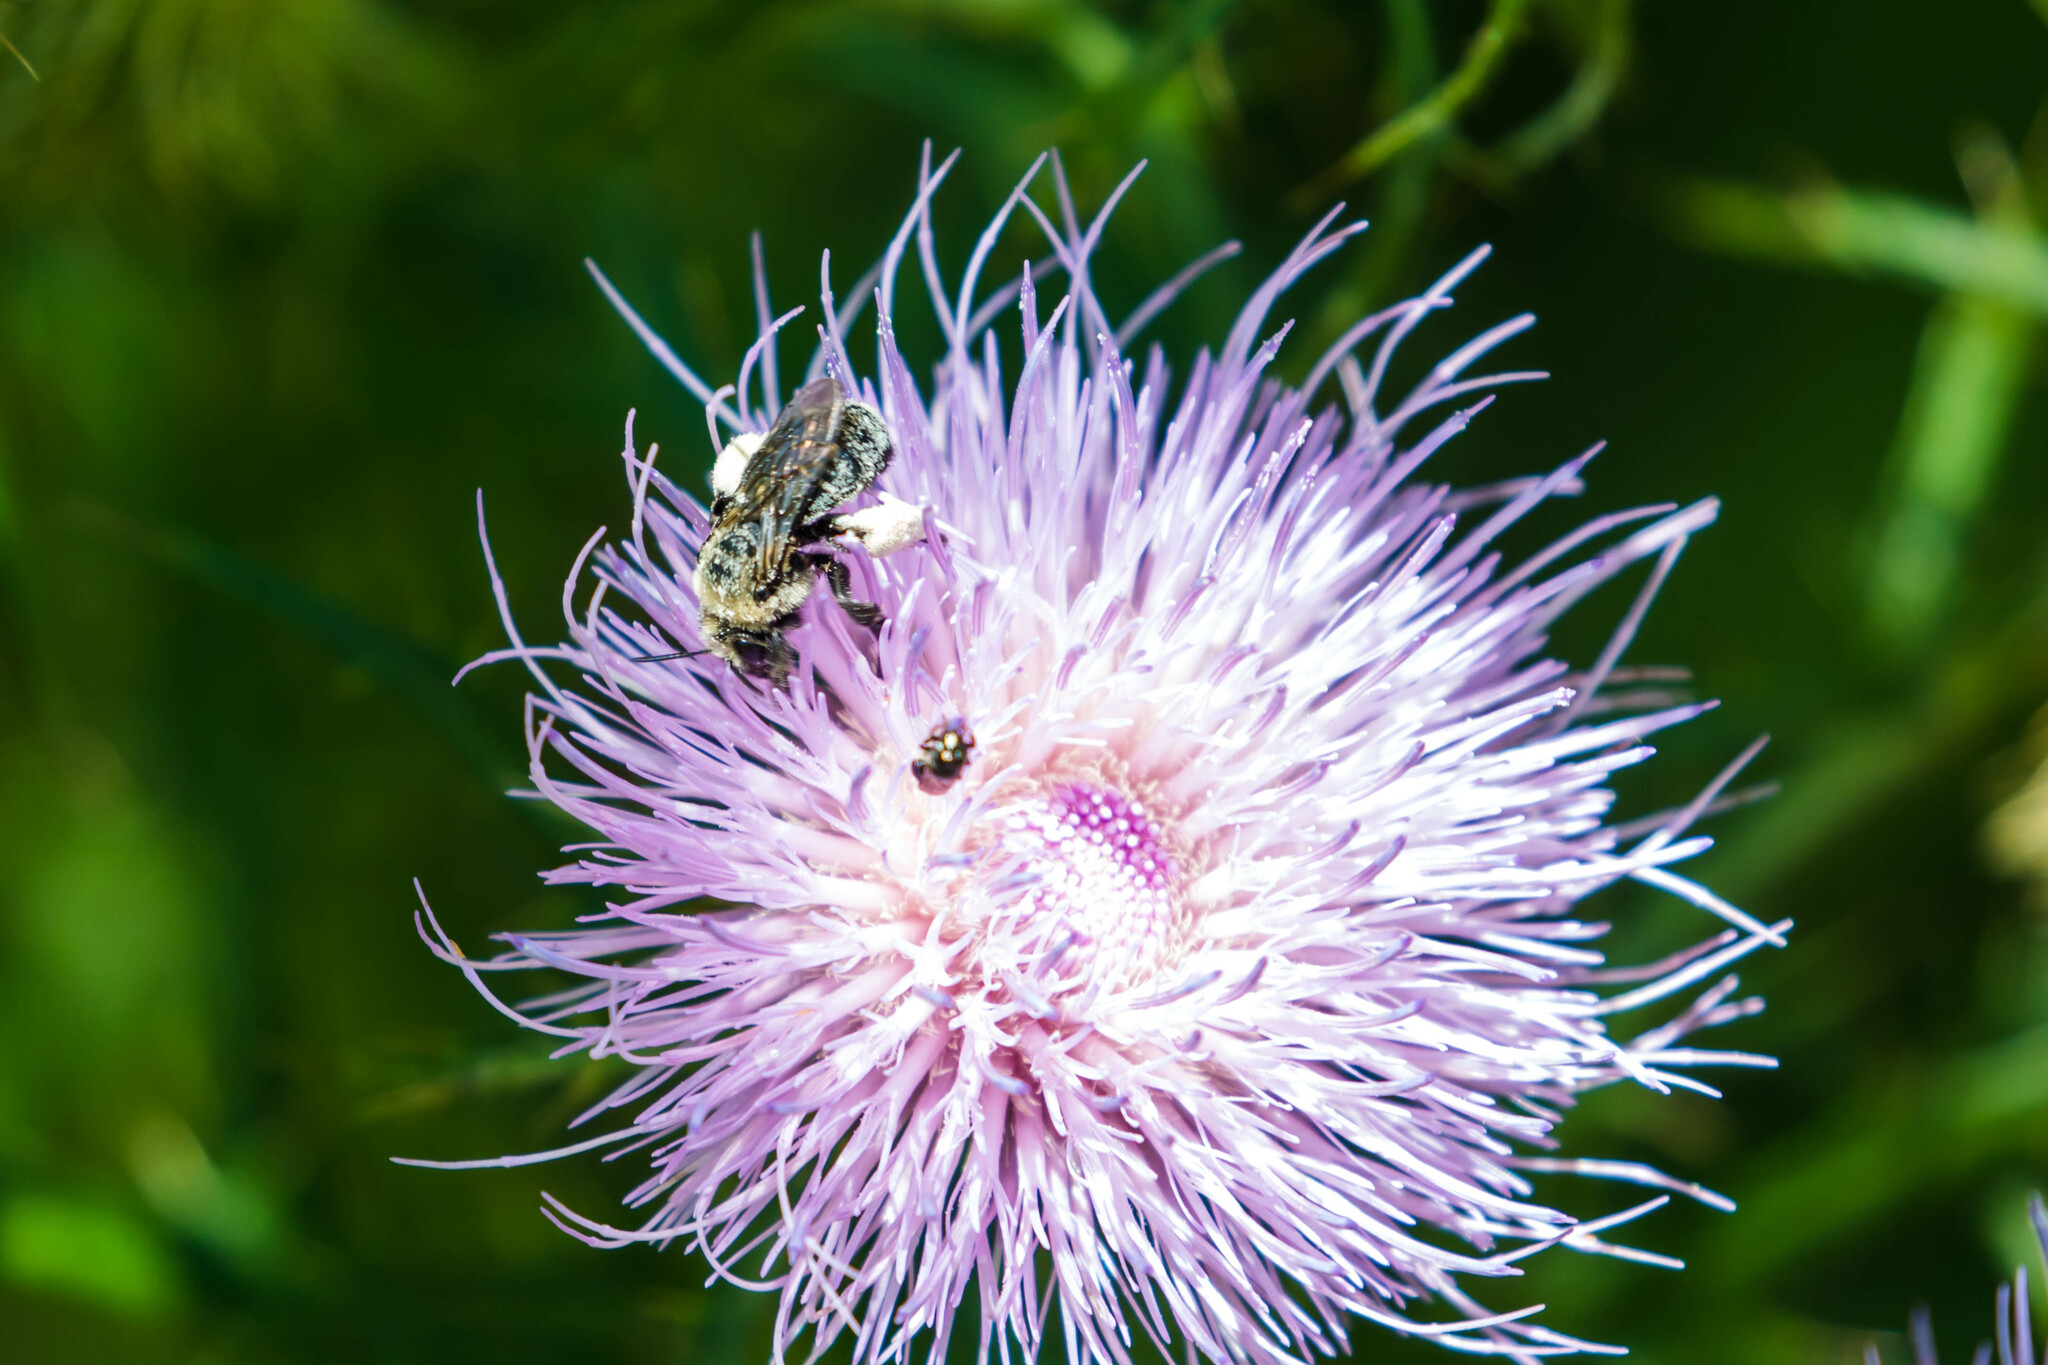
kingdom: Animalia
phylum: Arthropoda
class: Insecta
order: Hymenoptera
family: Apidae
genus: Melissodes
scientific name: Melissodes desponsus
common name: Thistle long-horned bee
